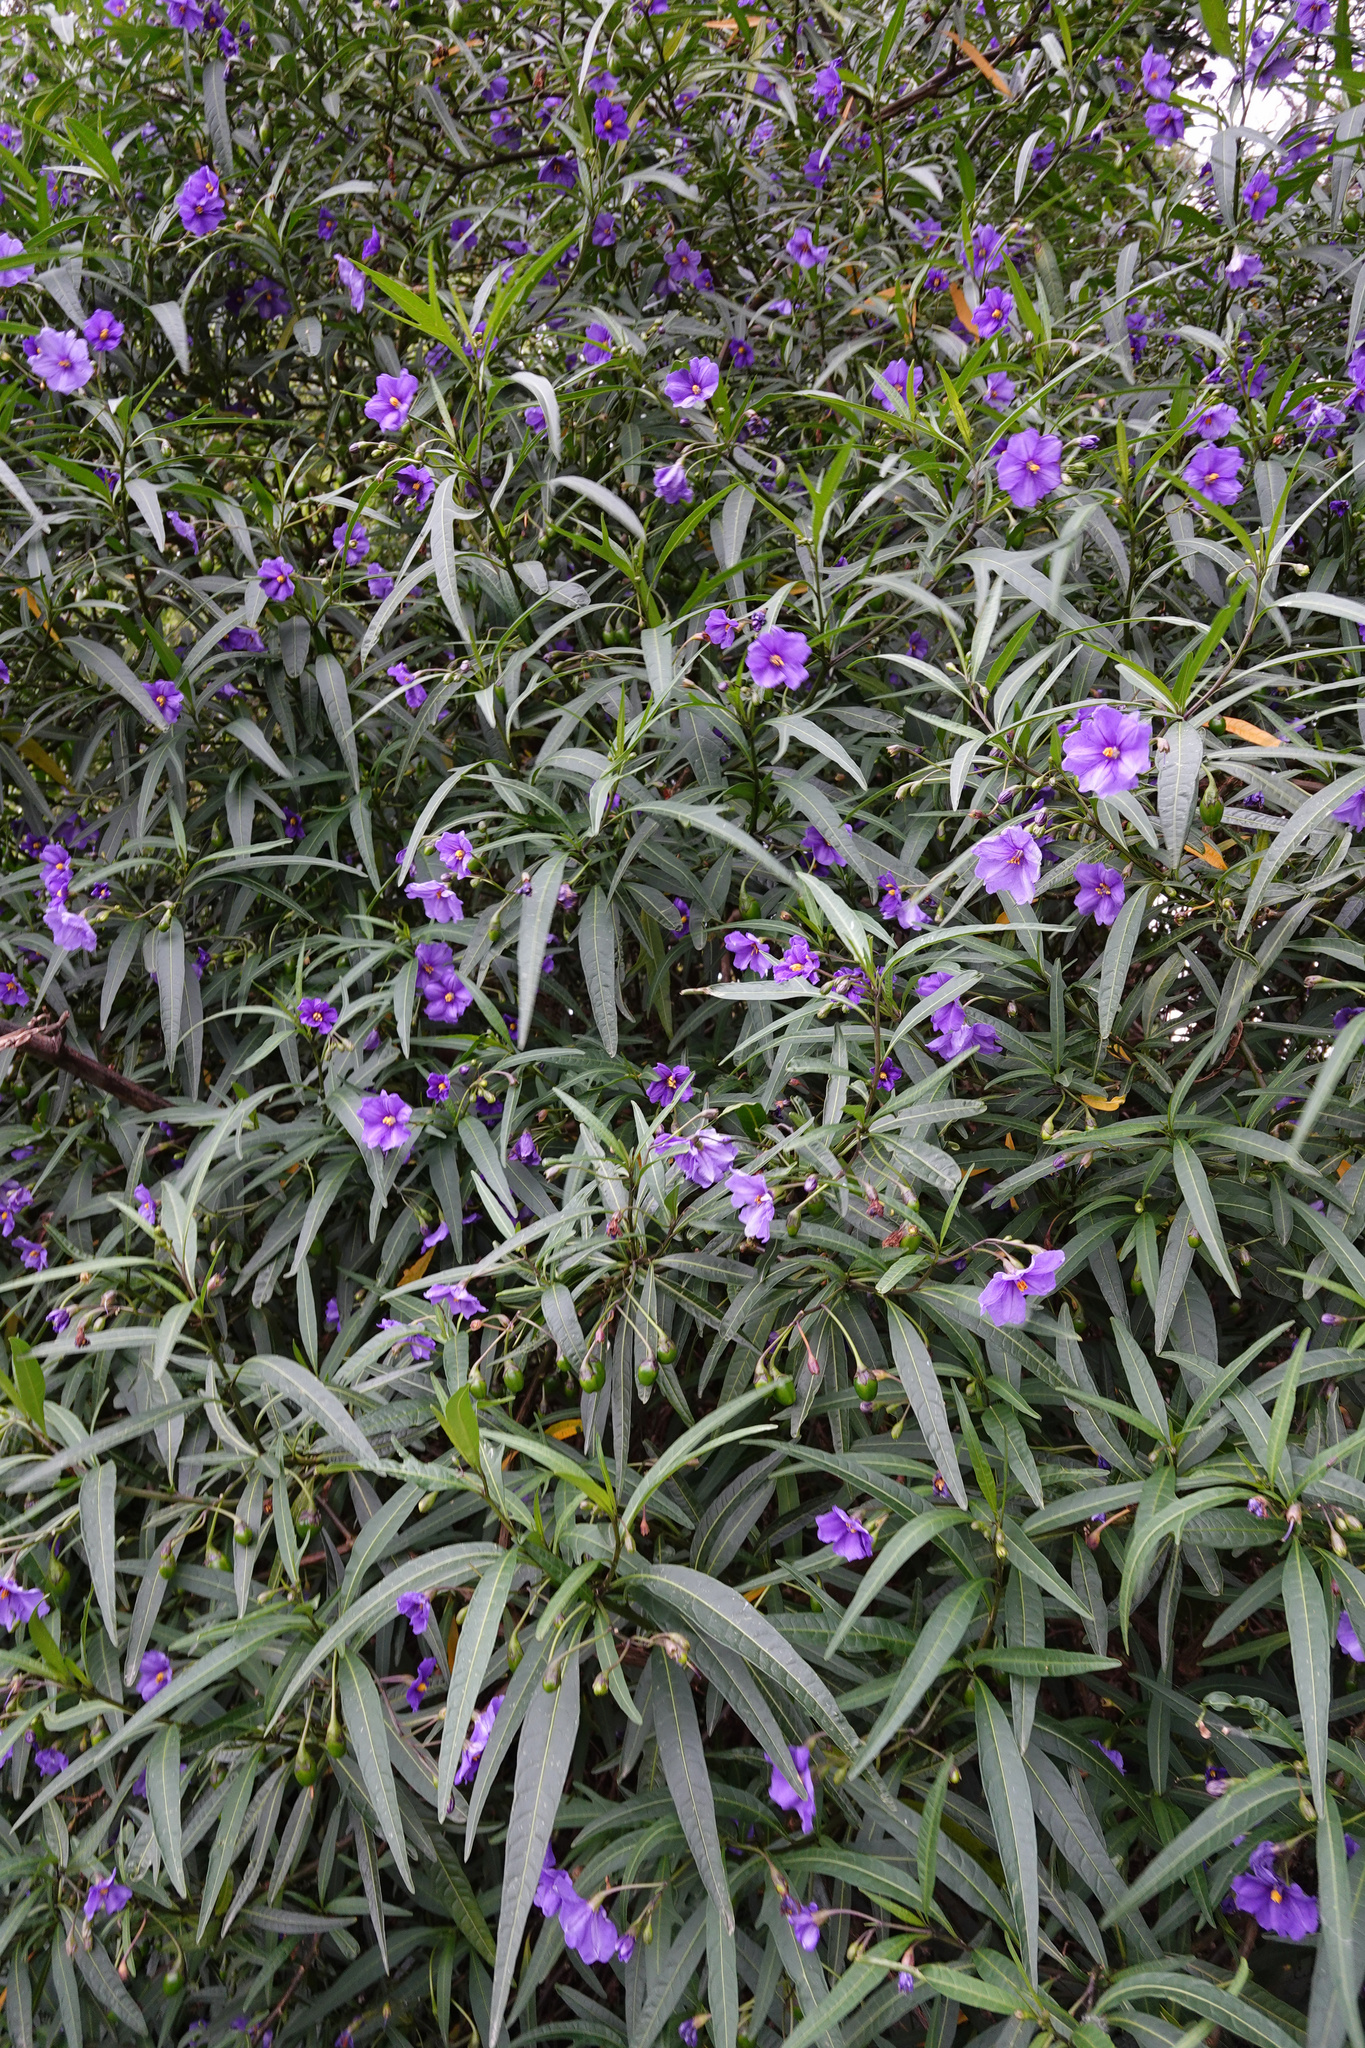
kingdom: Plantae
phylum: Tracheophyta
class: Magnoliopsida
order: Solanales
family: Solanaceae
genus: Solanum
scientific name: Solanum laciniatum
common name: Kangaroo-apple
